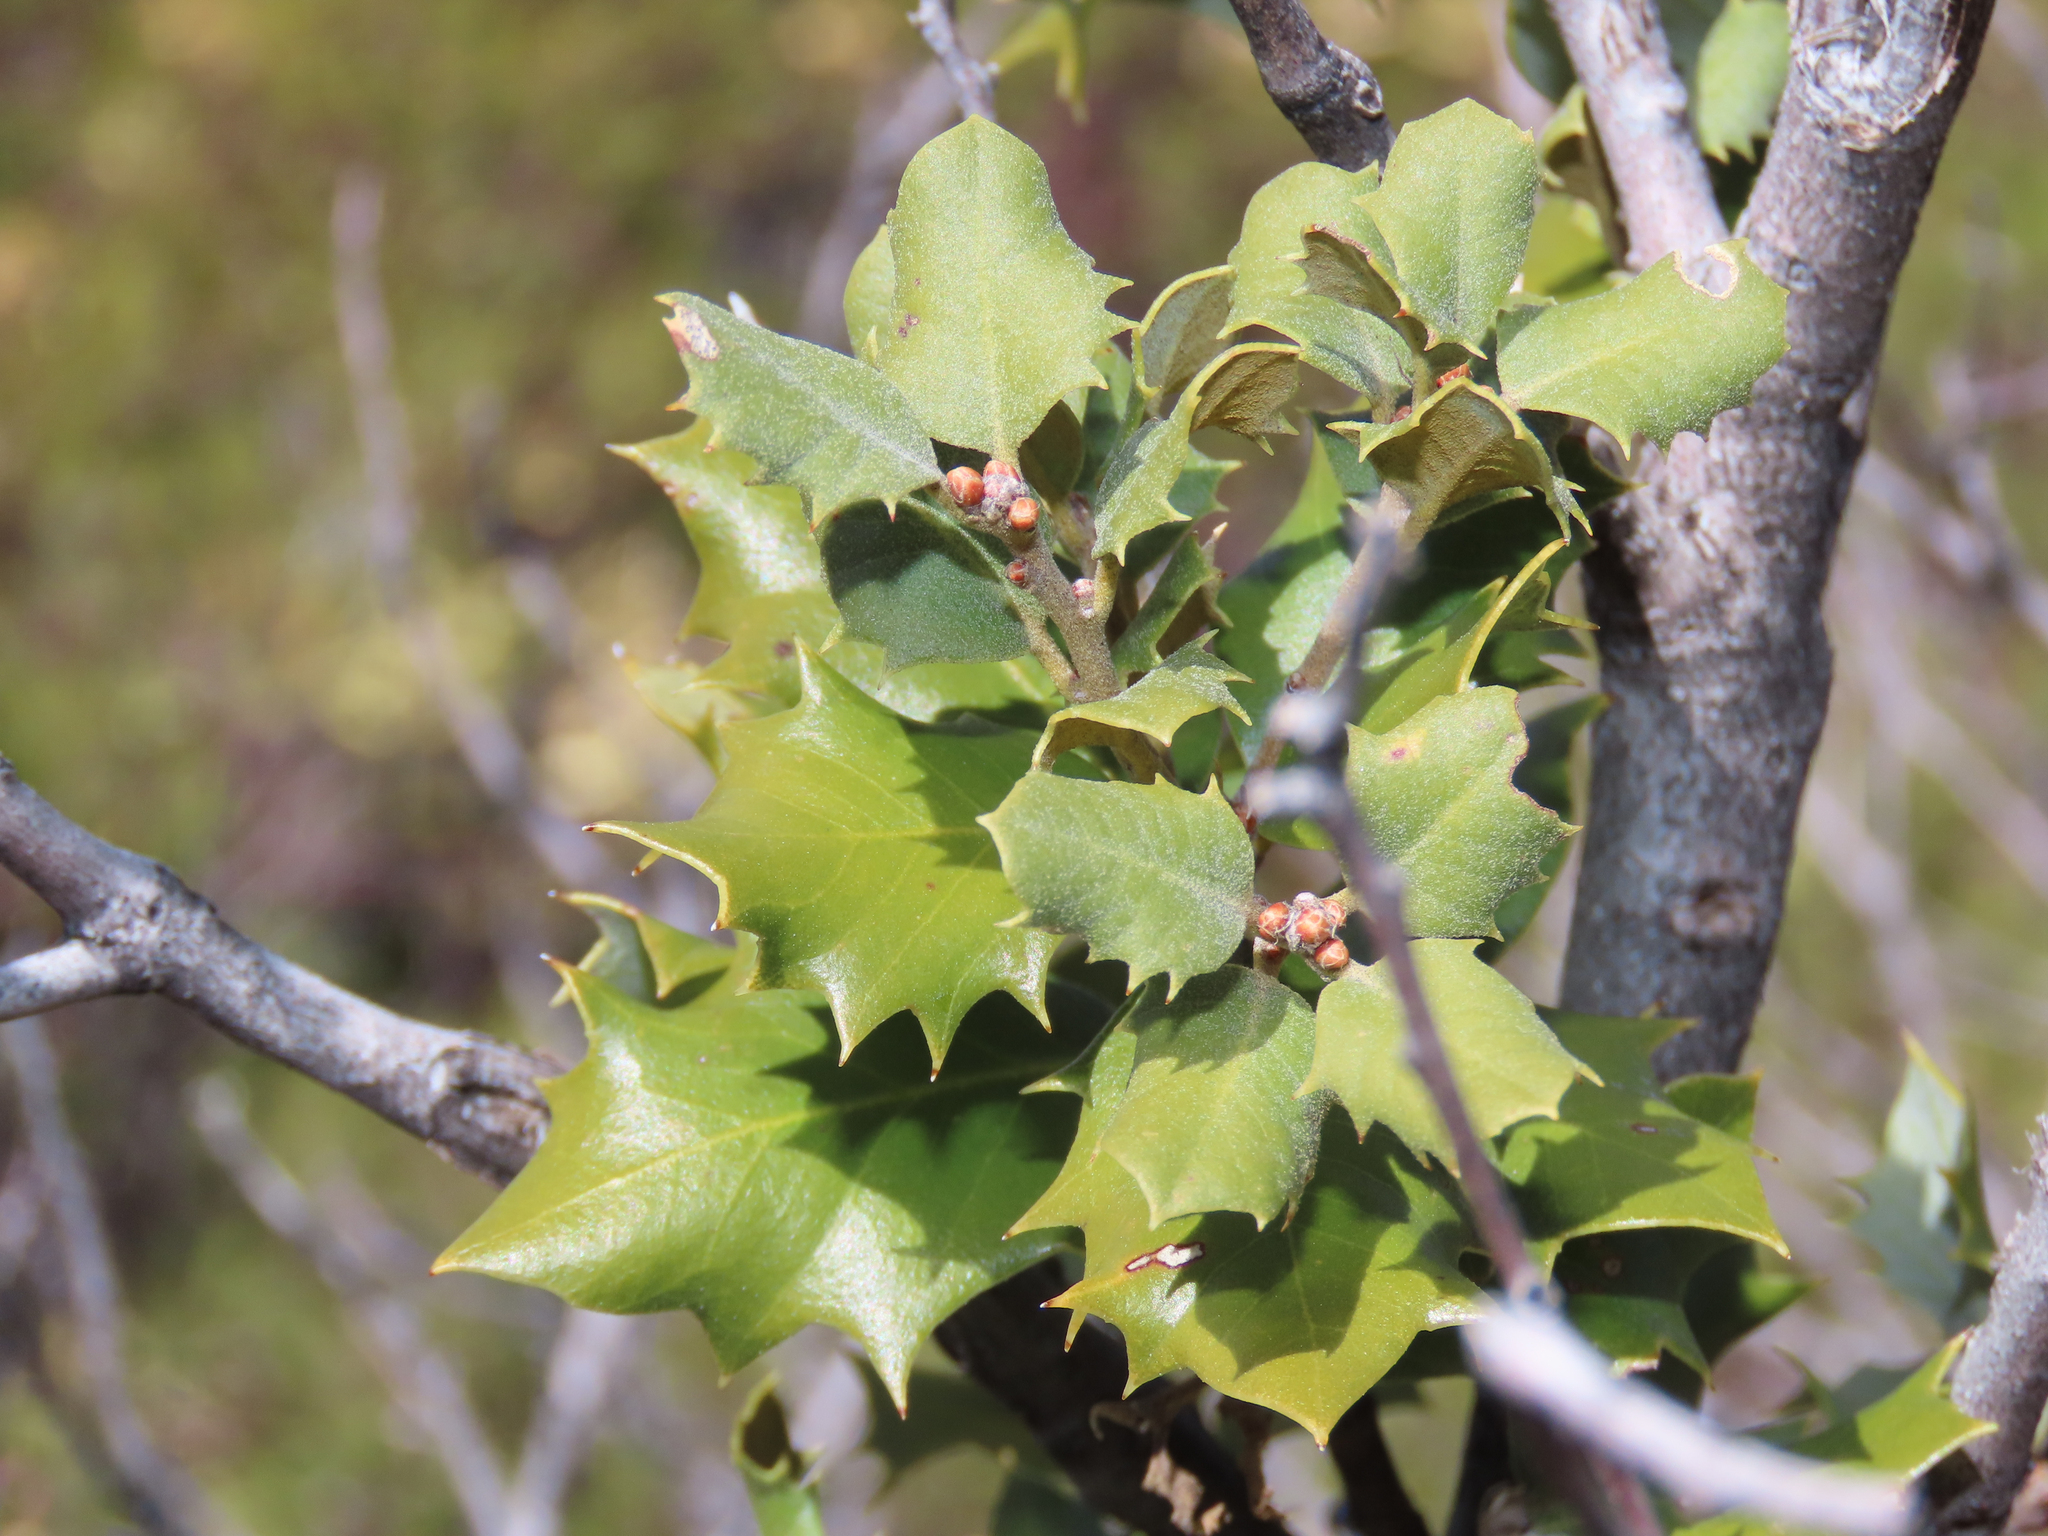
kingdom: Plantae
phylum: Tracheophyta
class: Magnoliopsida
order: Fagales
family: Fagaceae
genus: Quercus
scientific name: Quercus chrysolepis
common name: Canyon live oak
